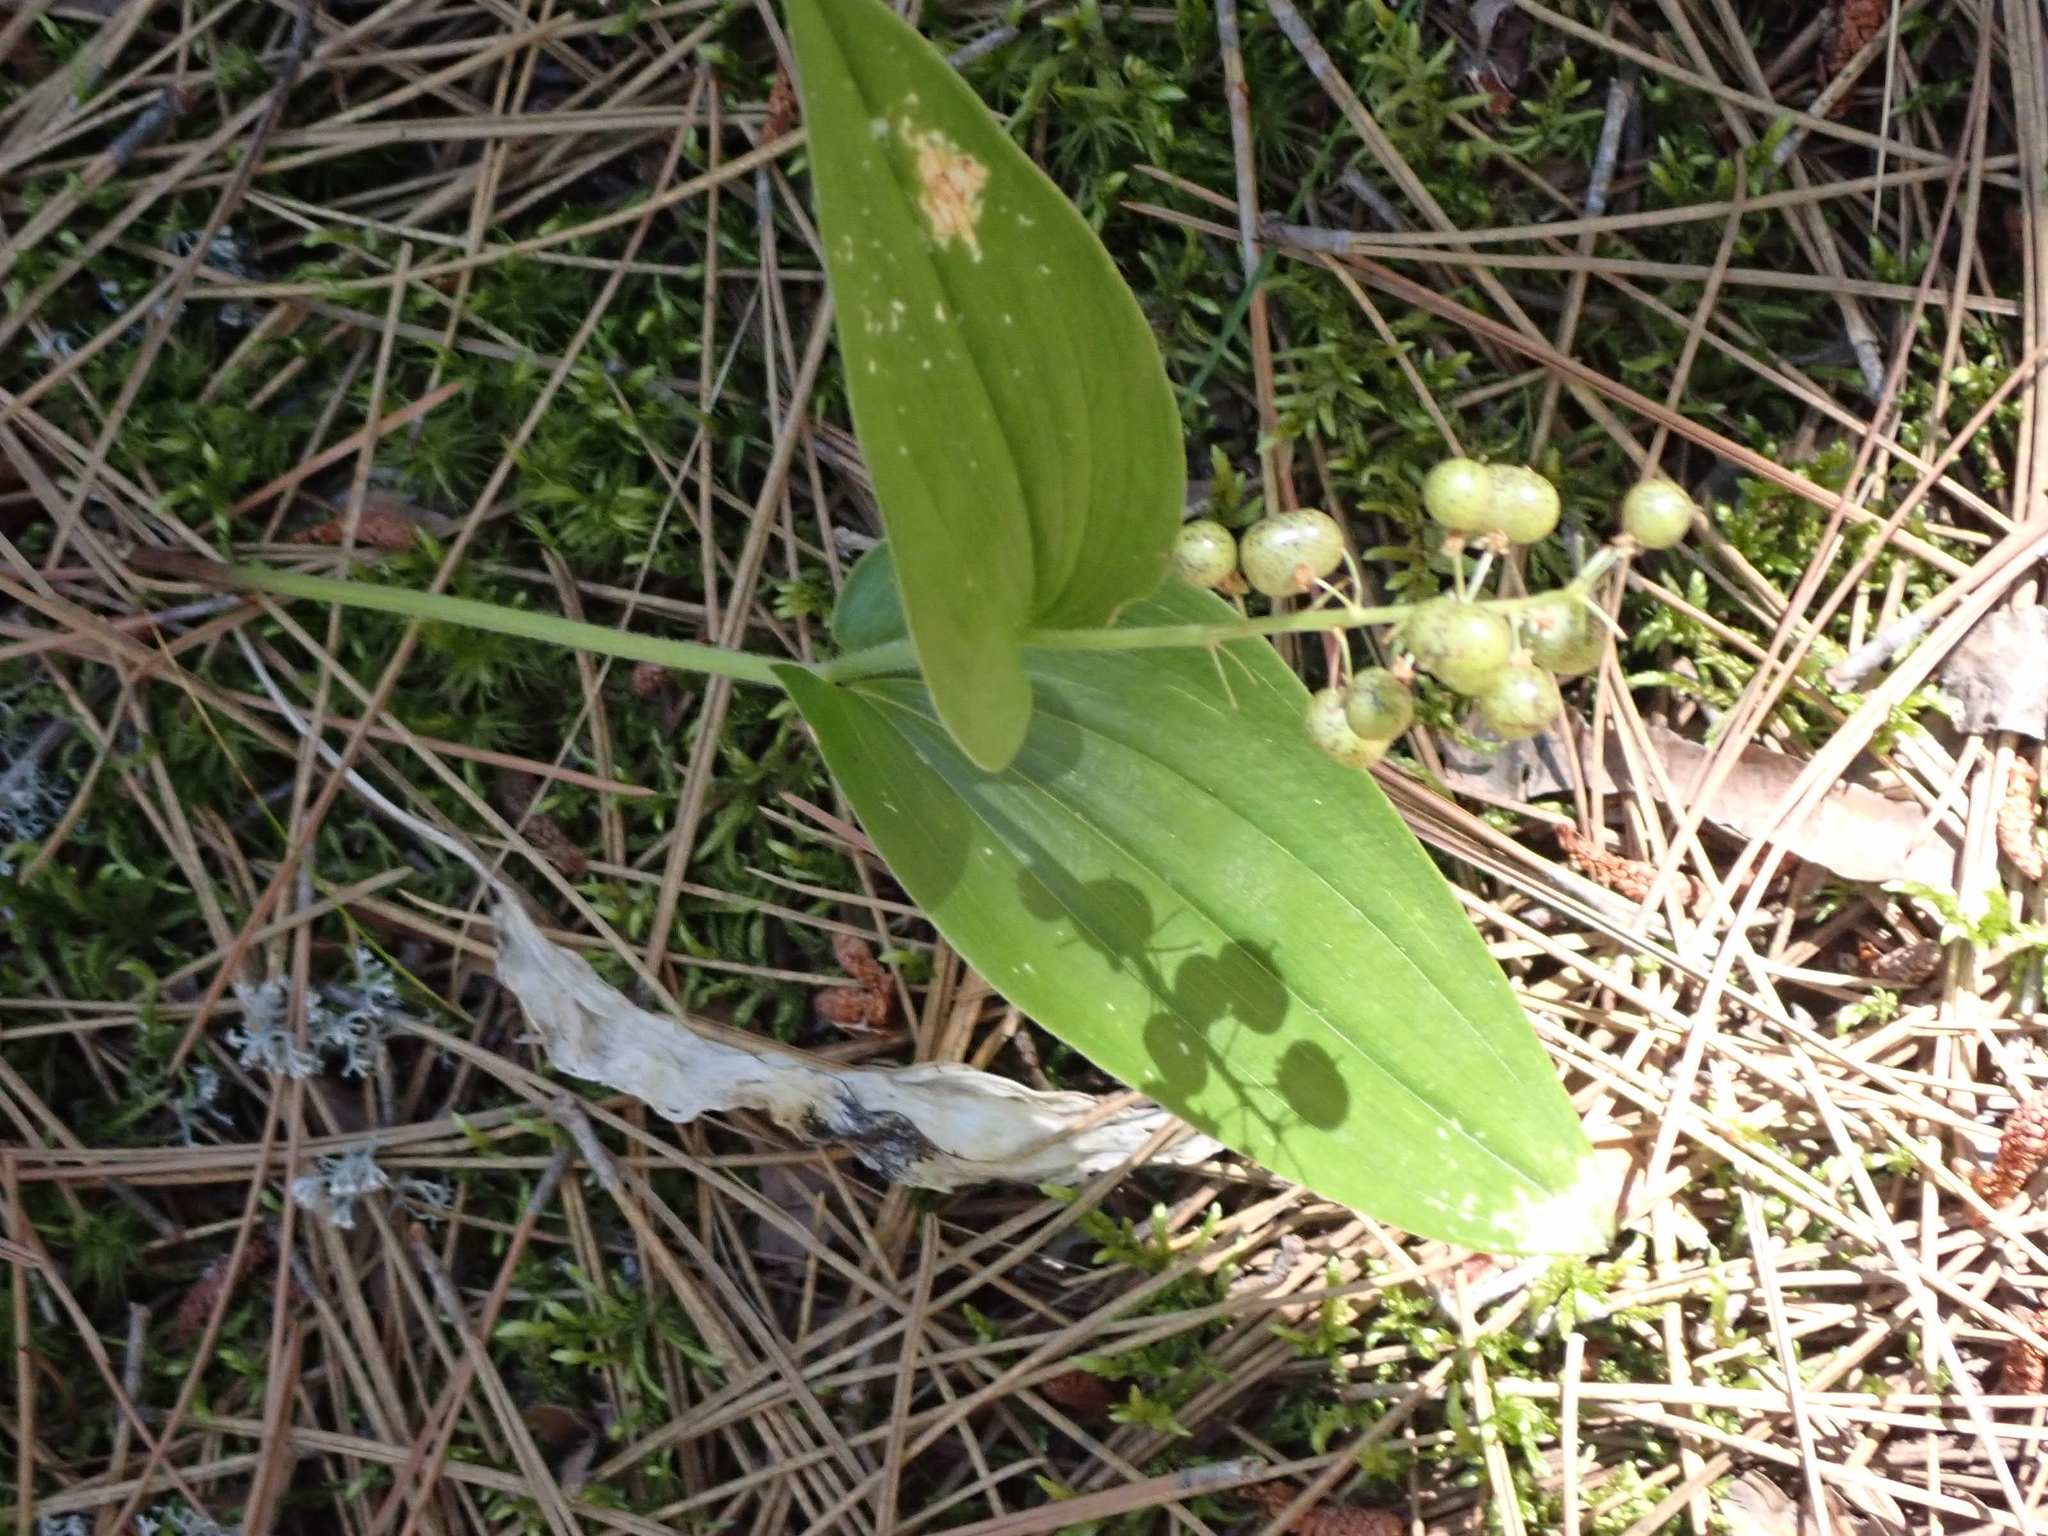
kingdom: Plantae
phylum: Tracheophyta
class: Liliopsida
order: Asparagales
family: Asparagaceae
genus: Maianthemum
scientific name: Maianthemum canadense
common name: False lily-of-the-valley
